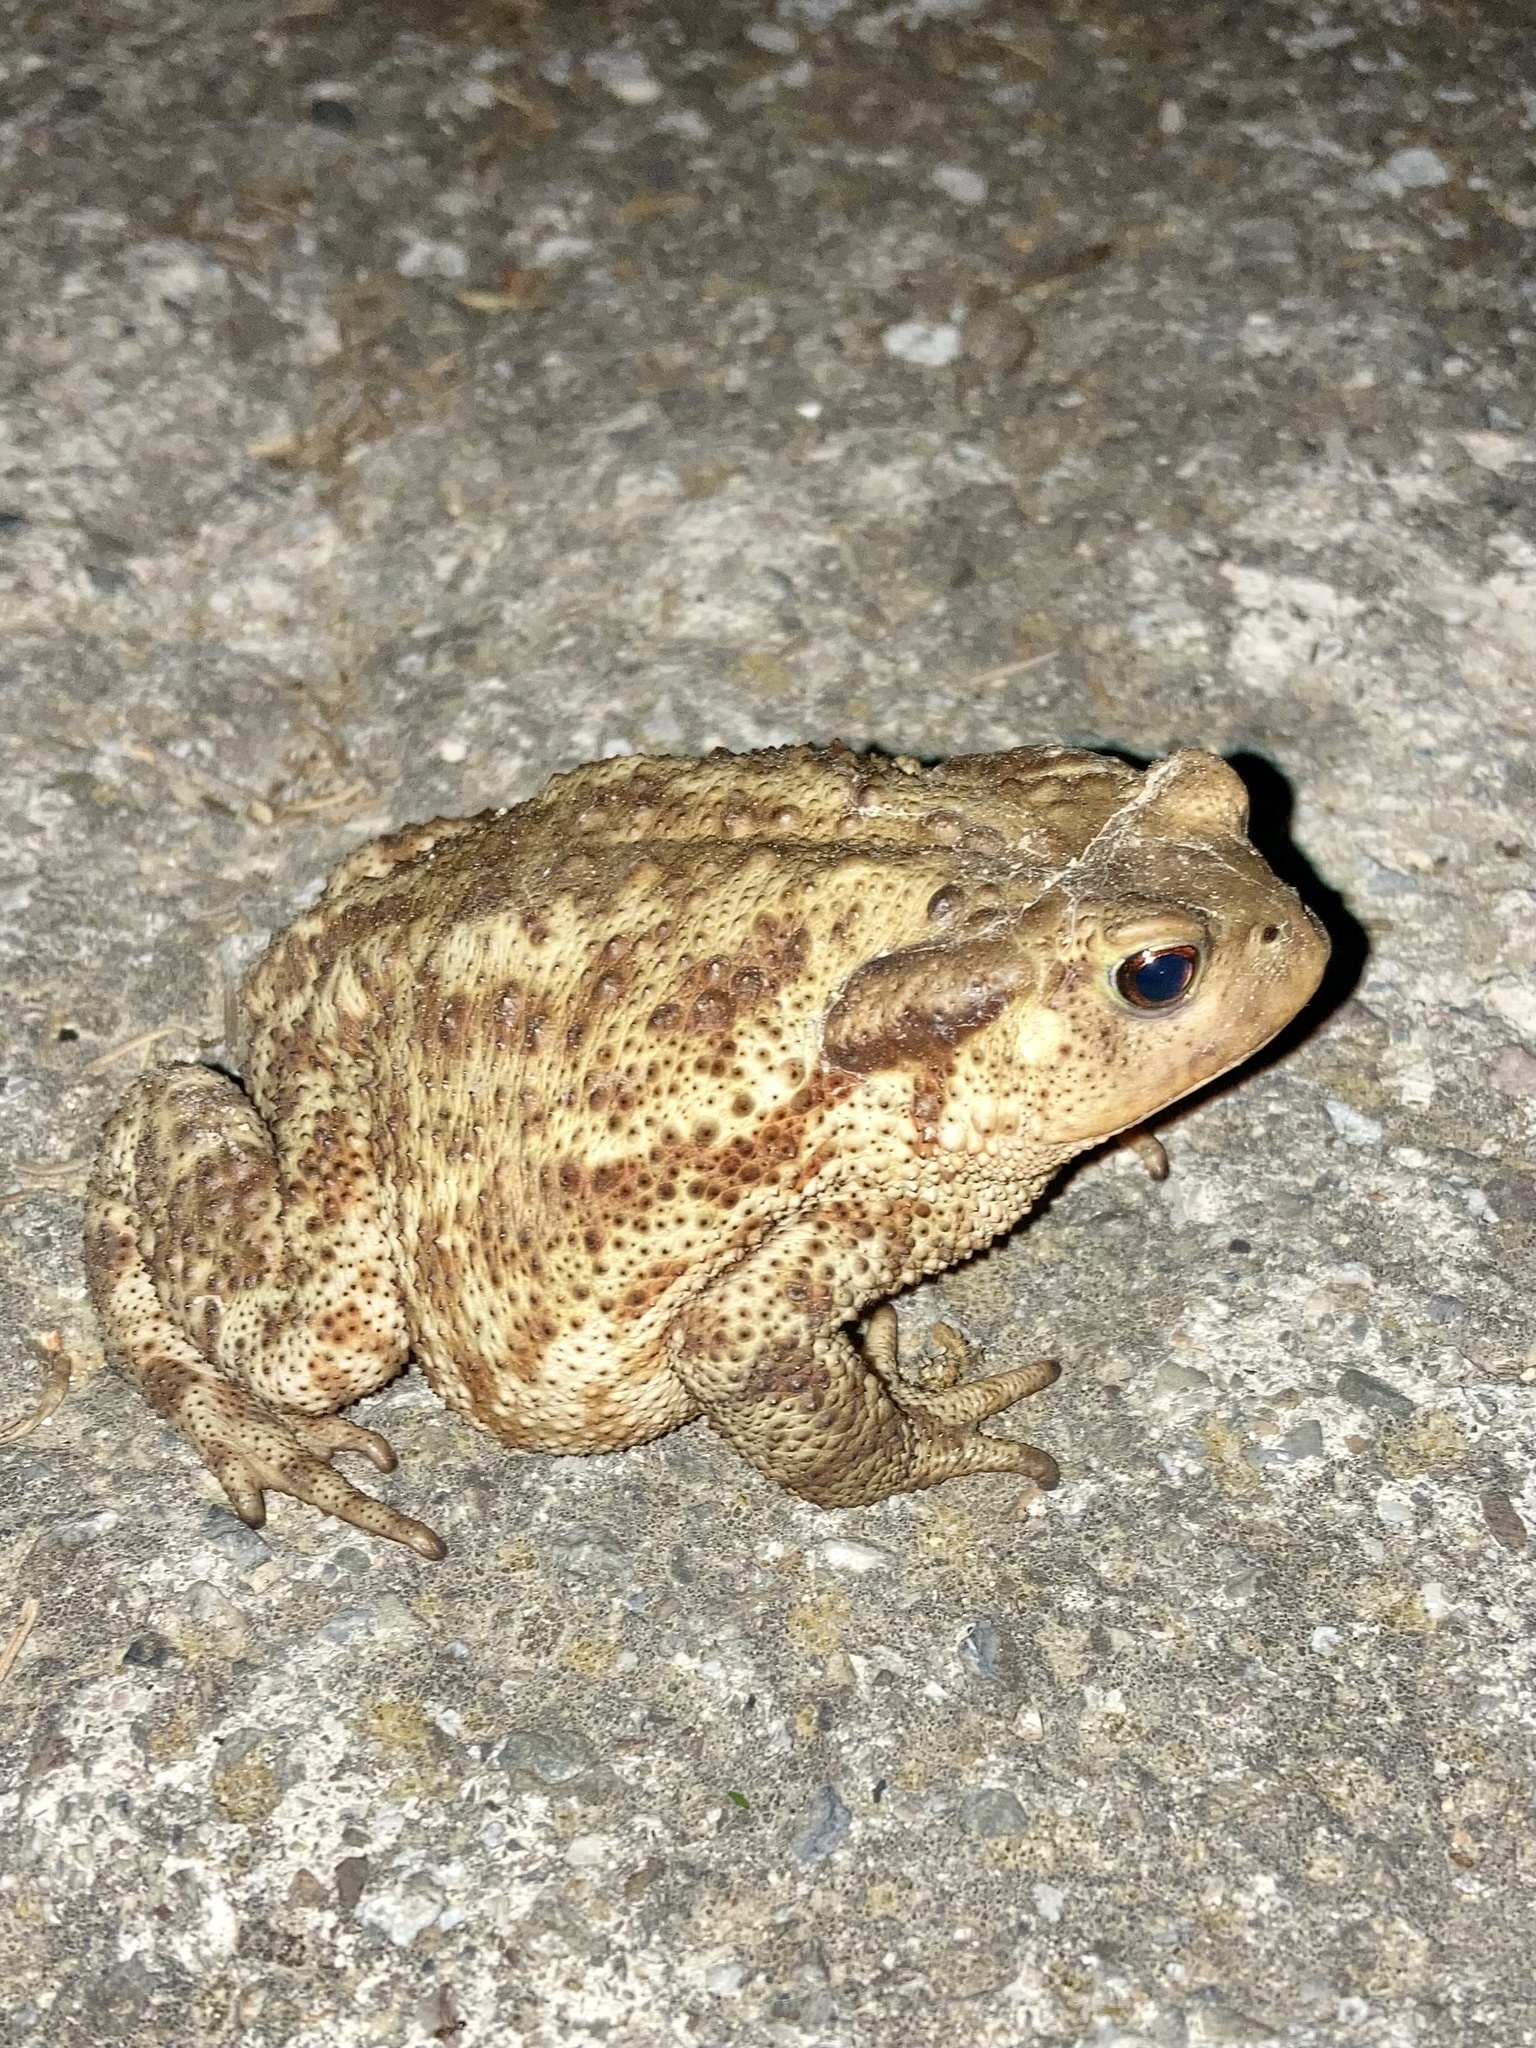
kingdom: Animalia
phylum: Chordata
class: Amphibia
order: Anura
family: Bufonidae
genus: Bufo
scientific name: Bufo bufo
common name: Common toad
